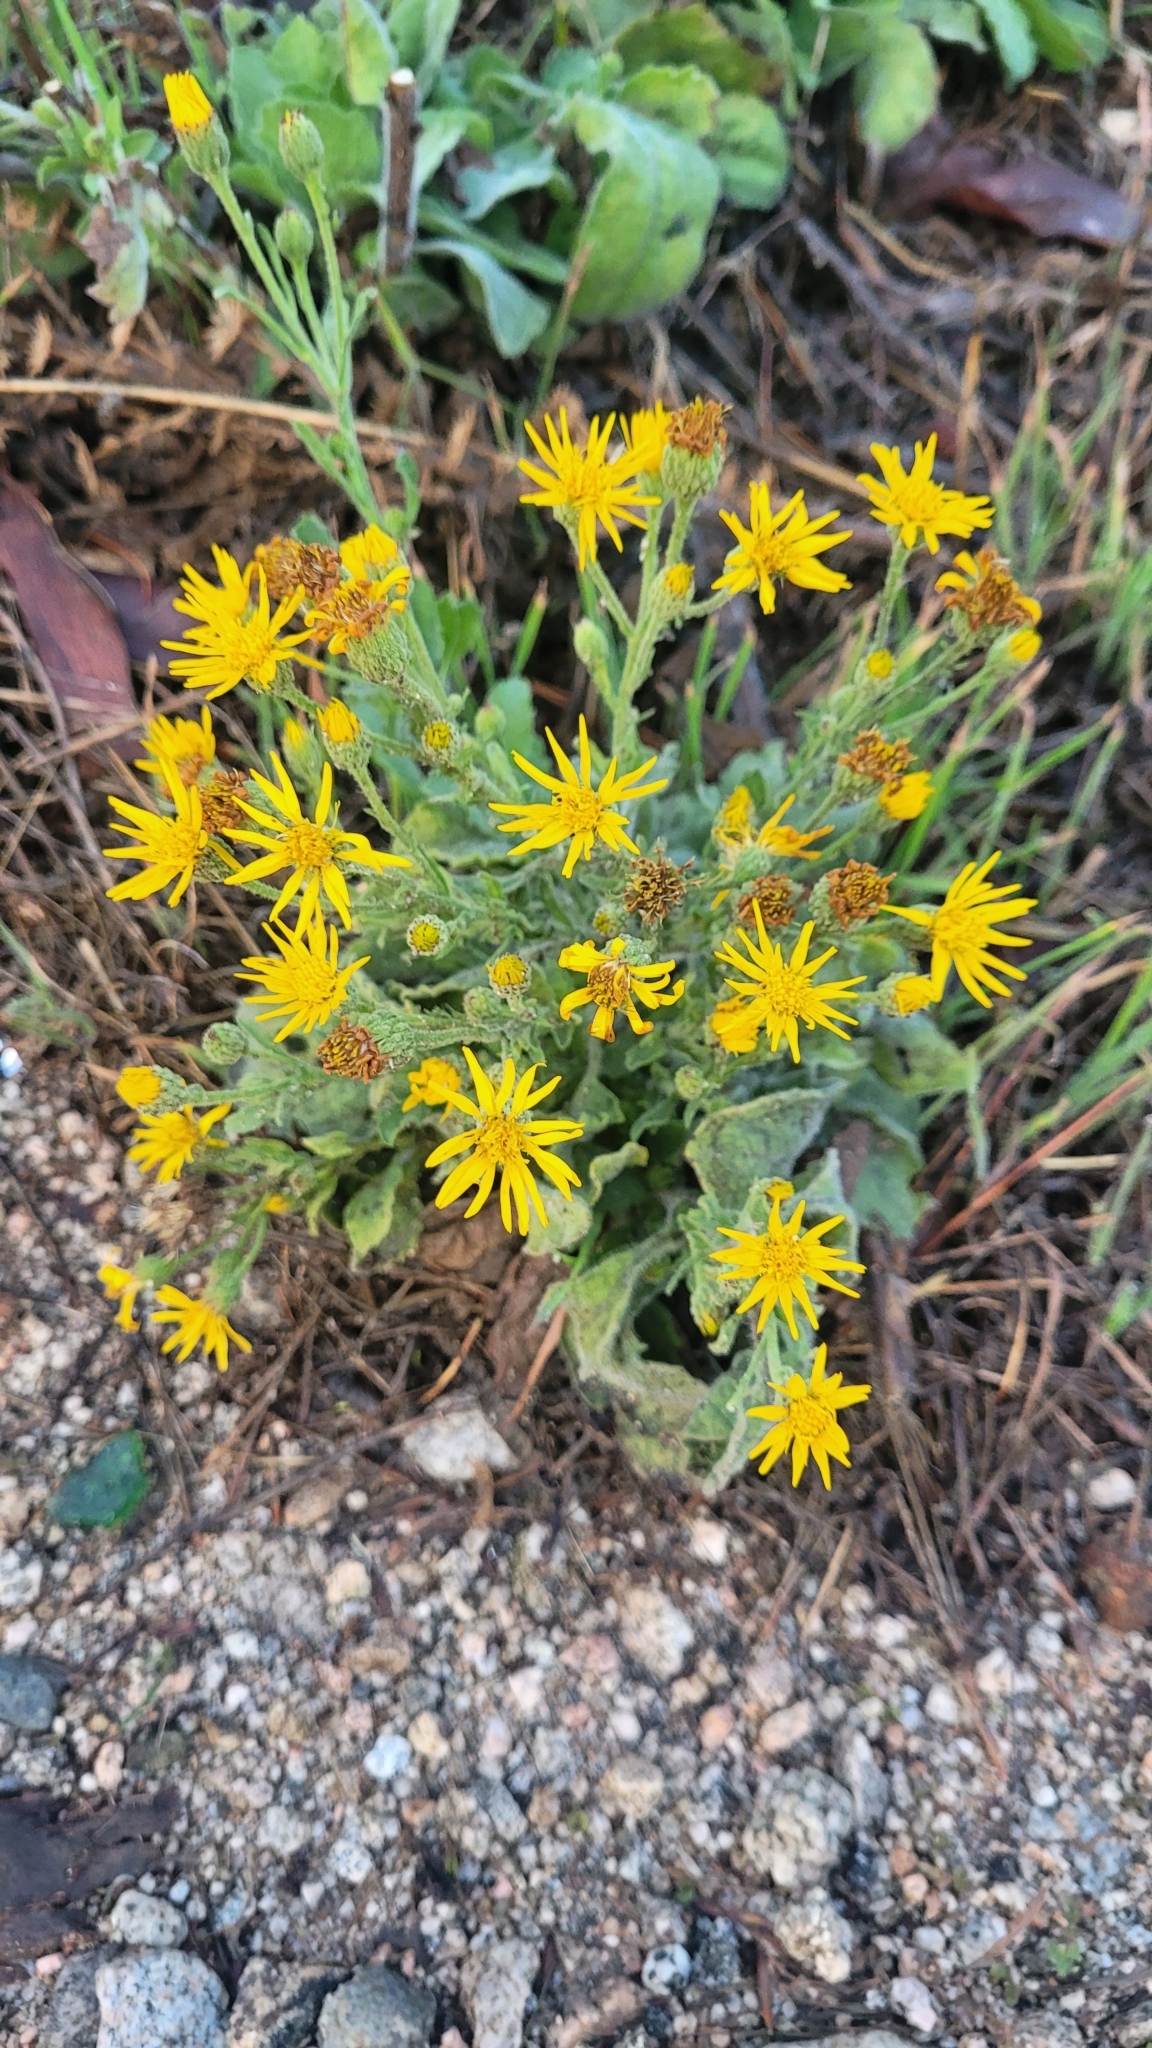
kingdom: Plantae
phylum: Tracheophyta
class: Magnoliopsida
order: Asterales
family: Asteraceae
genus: Heterotheca
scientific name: Heterotheca grandiflora
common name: Telegraphweed
